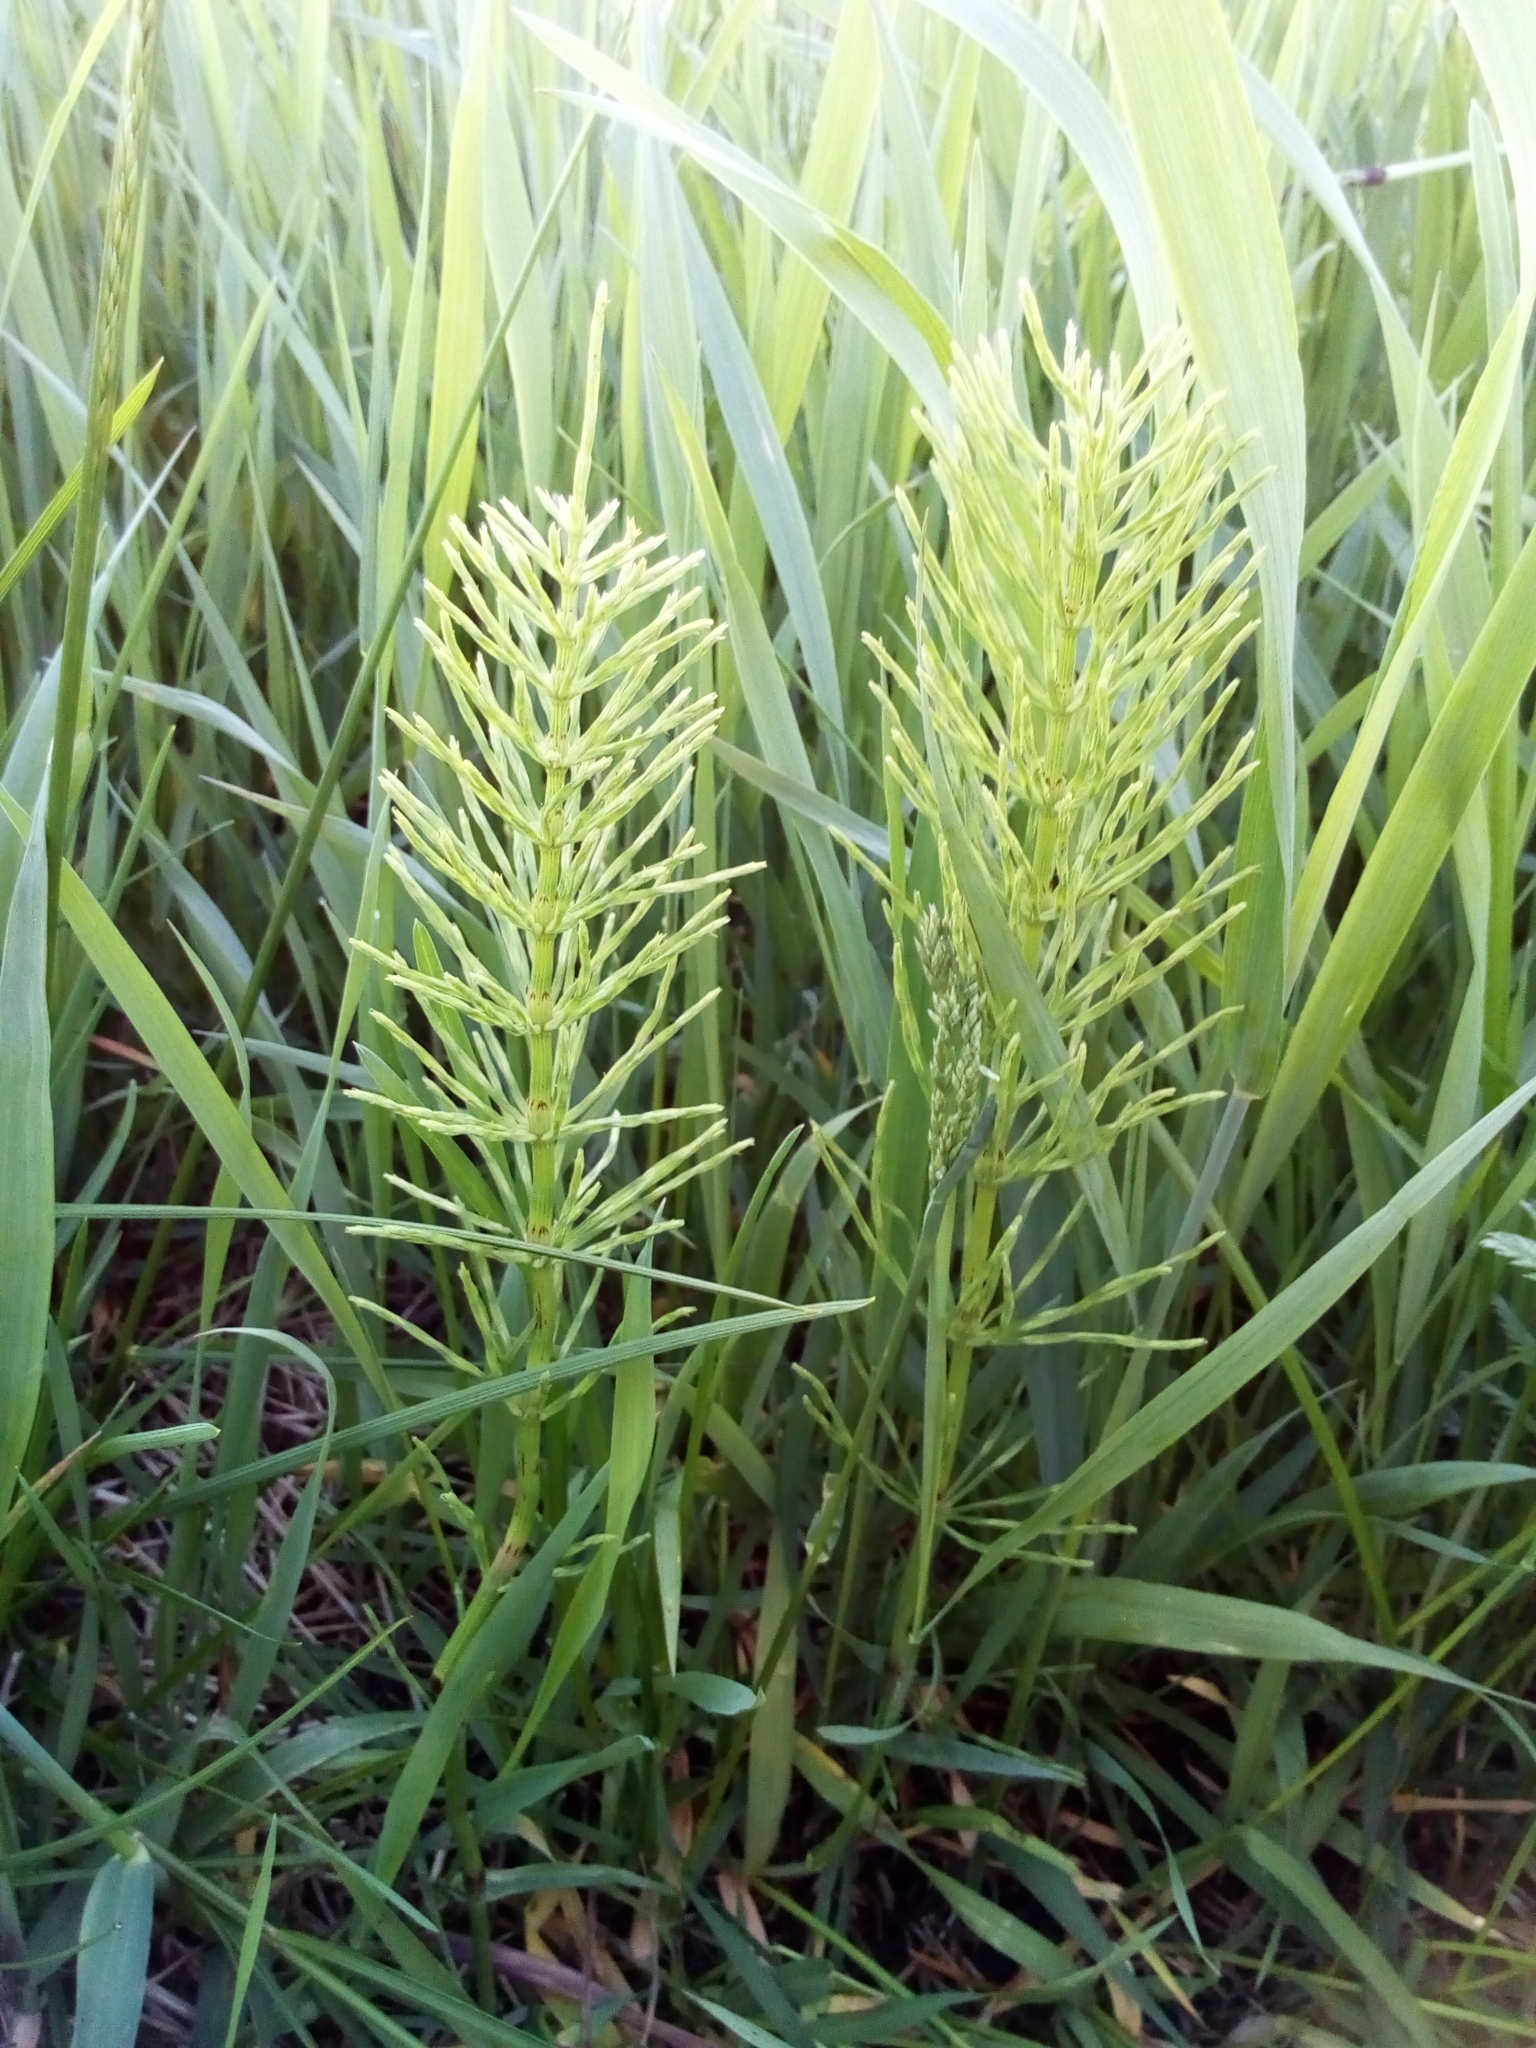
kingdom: Plantae
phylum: Tracheophyta
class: Polypodiopsida
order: Equisetales
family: Equisetaceae
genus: Equisetum
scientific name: Equisetum arvense
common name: Field horsetail
